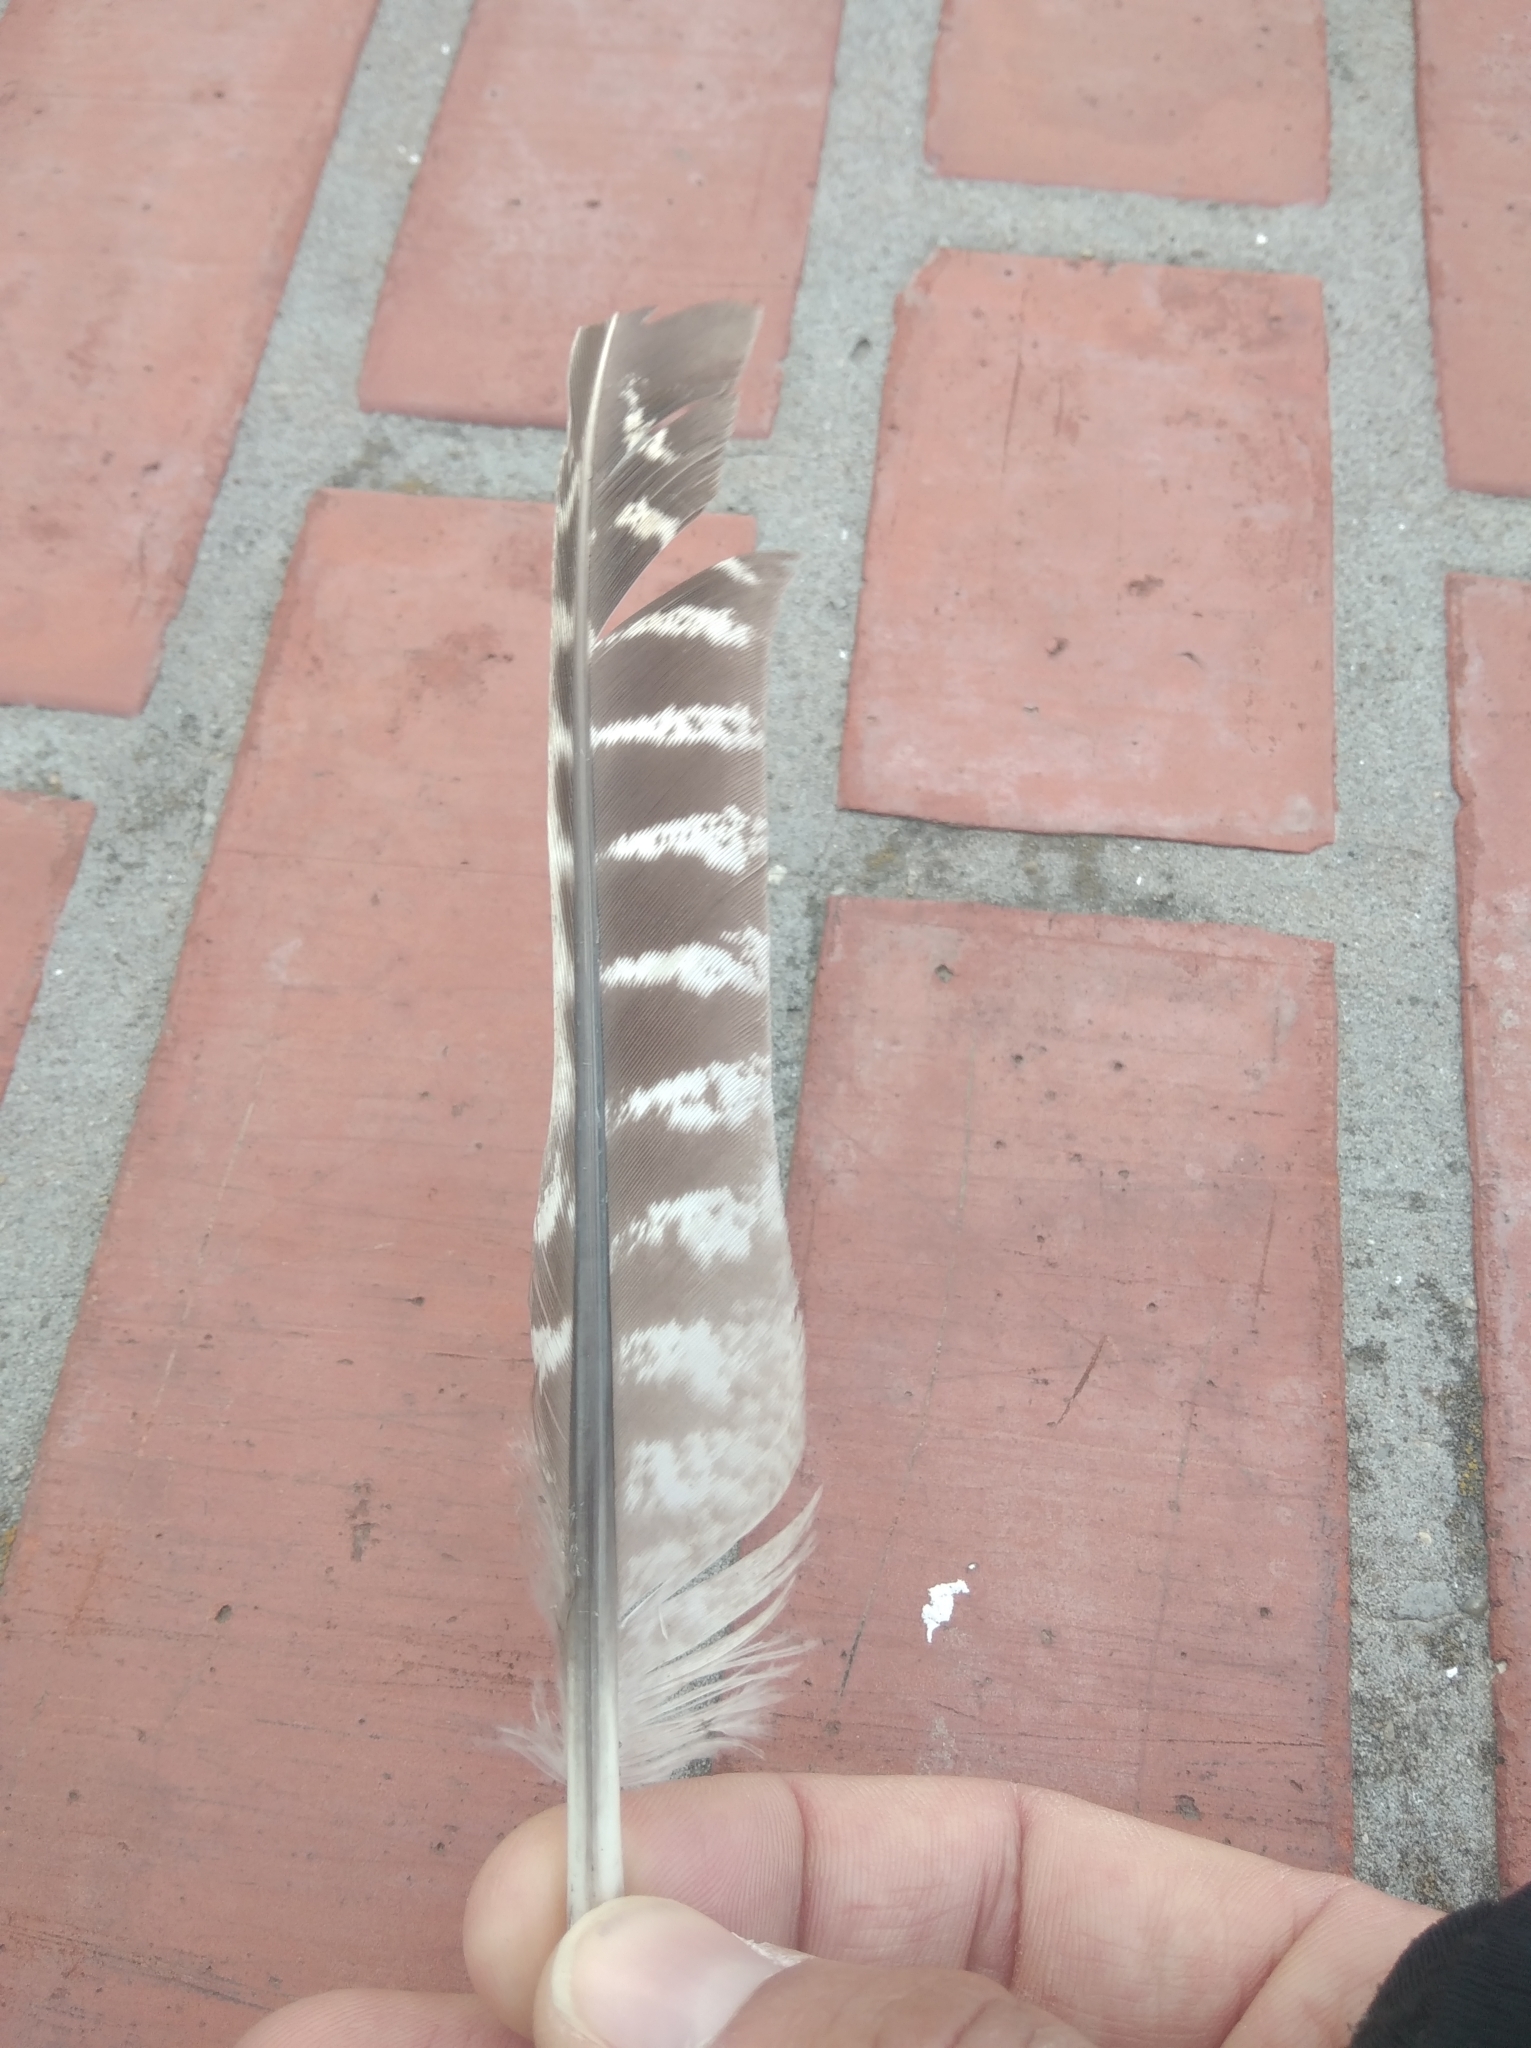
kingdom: Animalia
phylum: Chordata
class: Aves
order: Galliformes
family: Phasianidae
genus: Phasianus
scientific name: Phasianus colchicus
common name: Common pheasant
